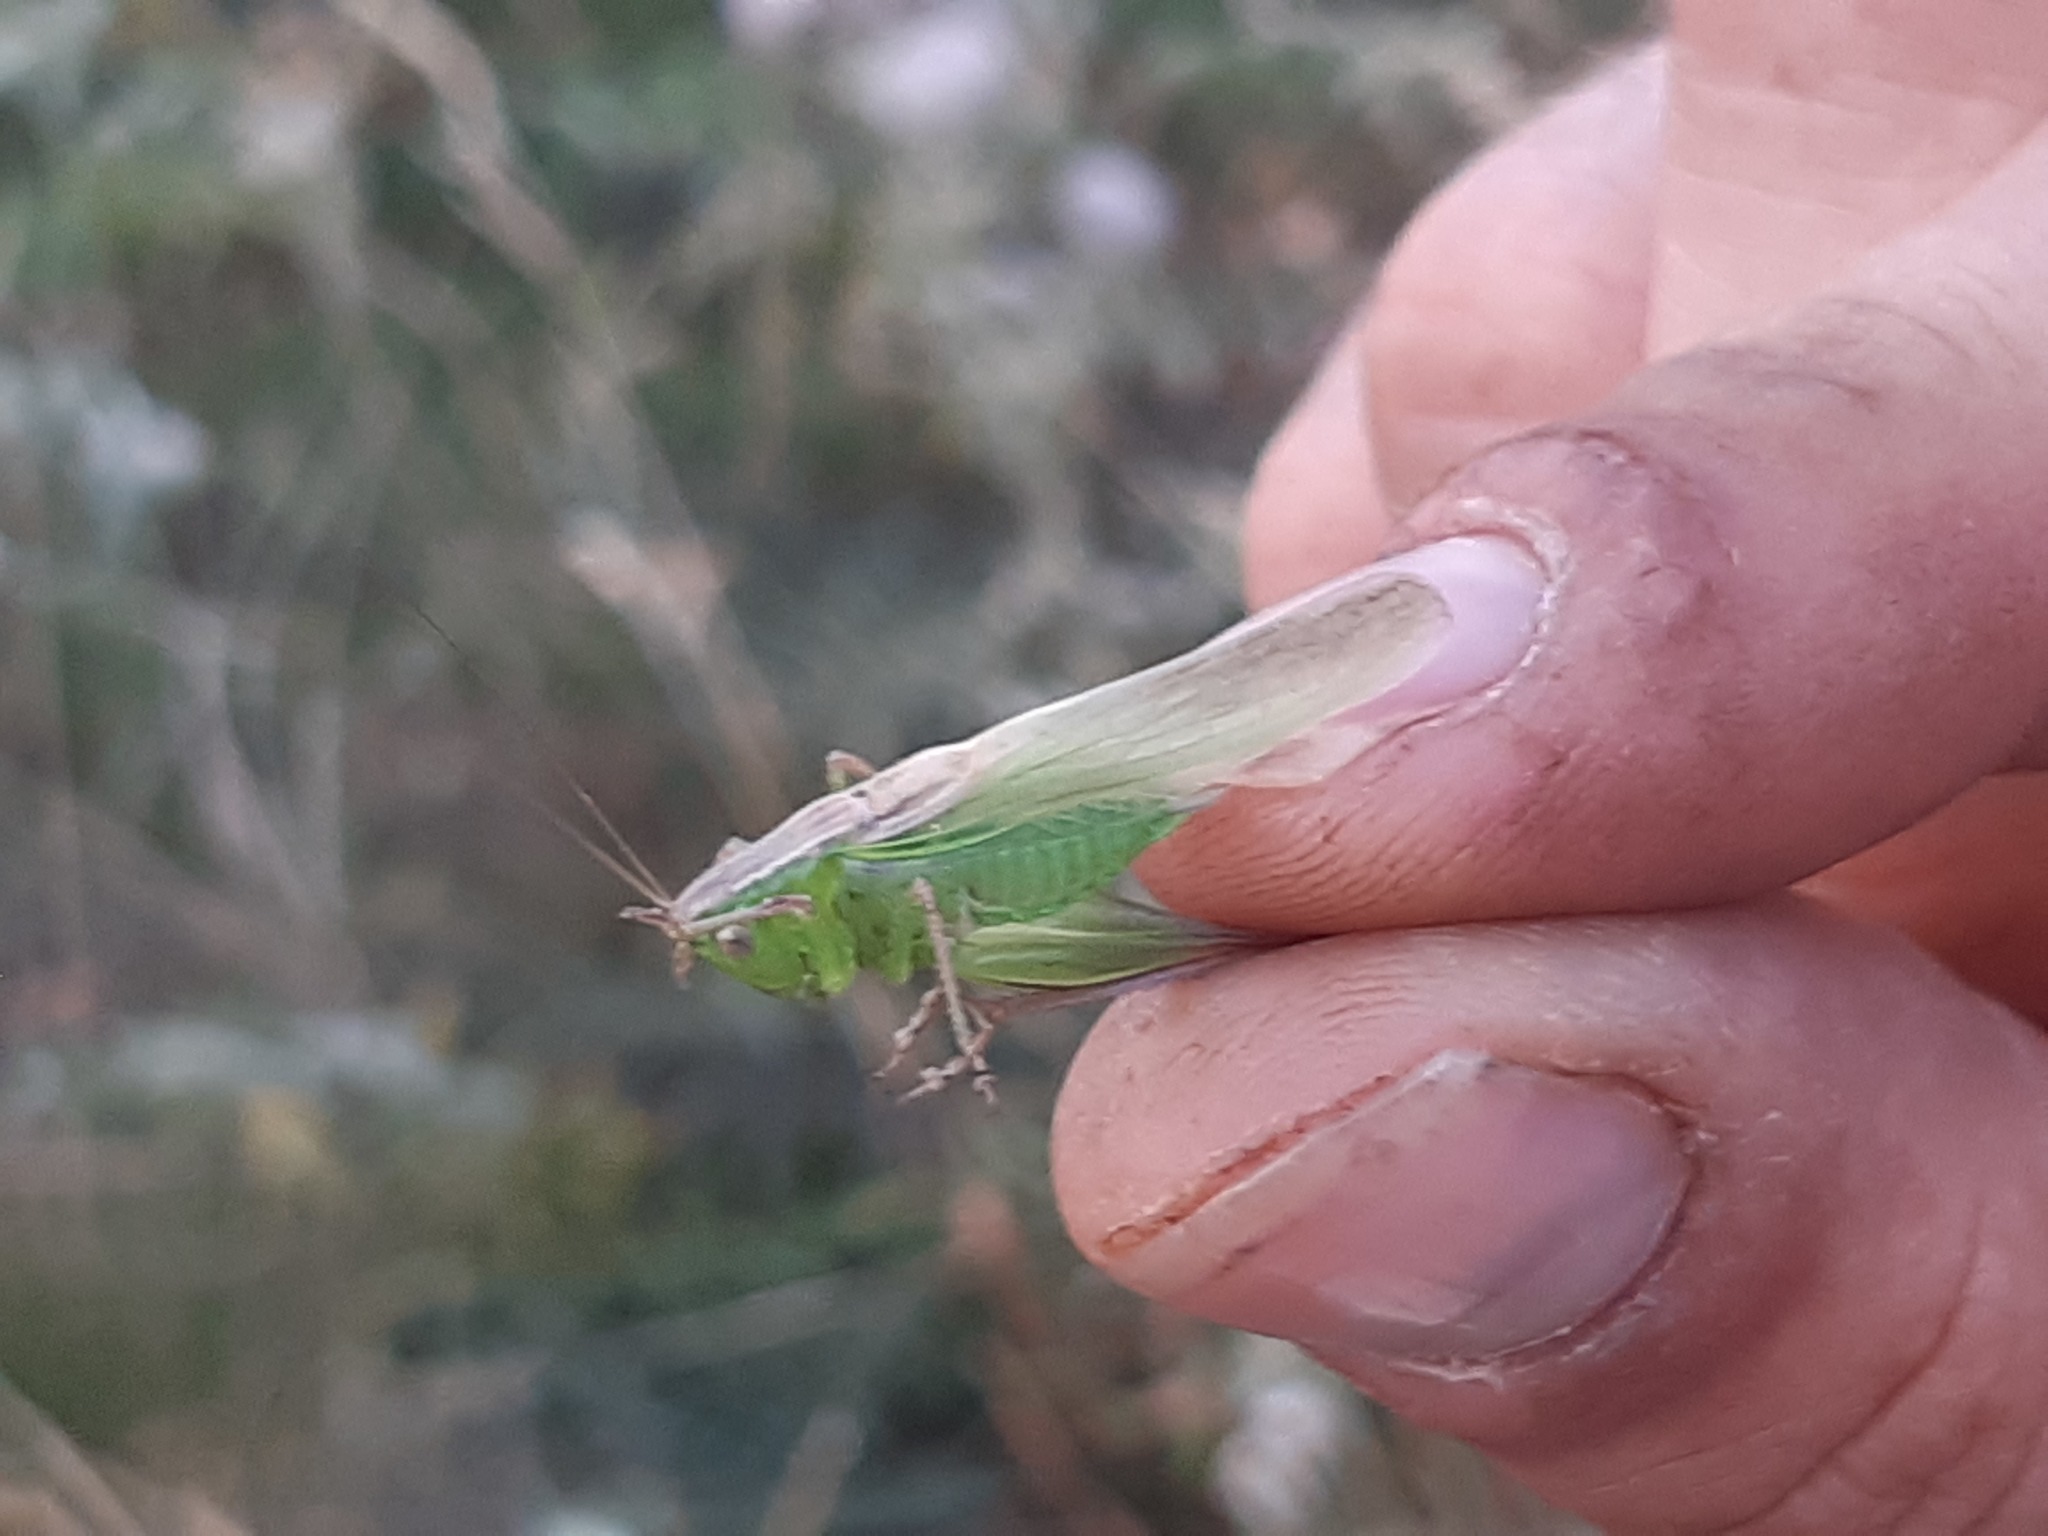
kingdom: Animalia
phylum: Arthropoda
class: Insecta
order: Orthoptera
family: Tettigoniidae
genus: Bicolorana
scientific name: Bicolorana bicolor
